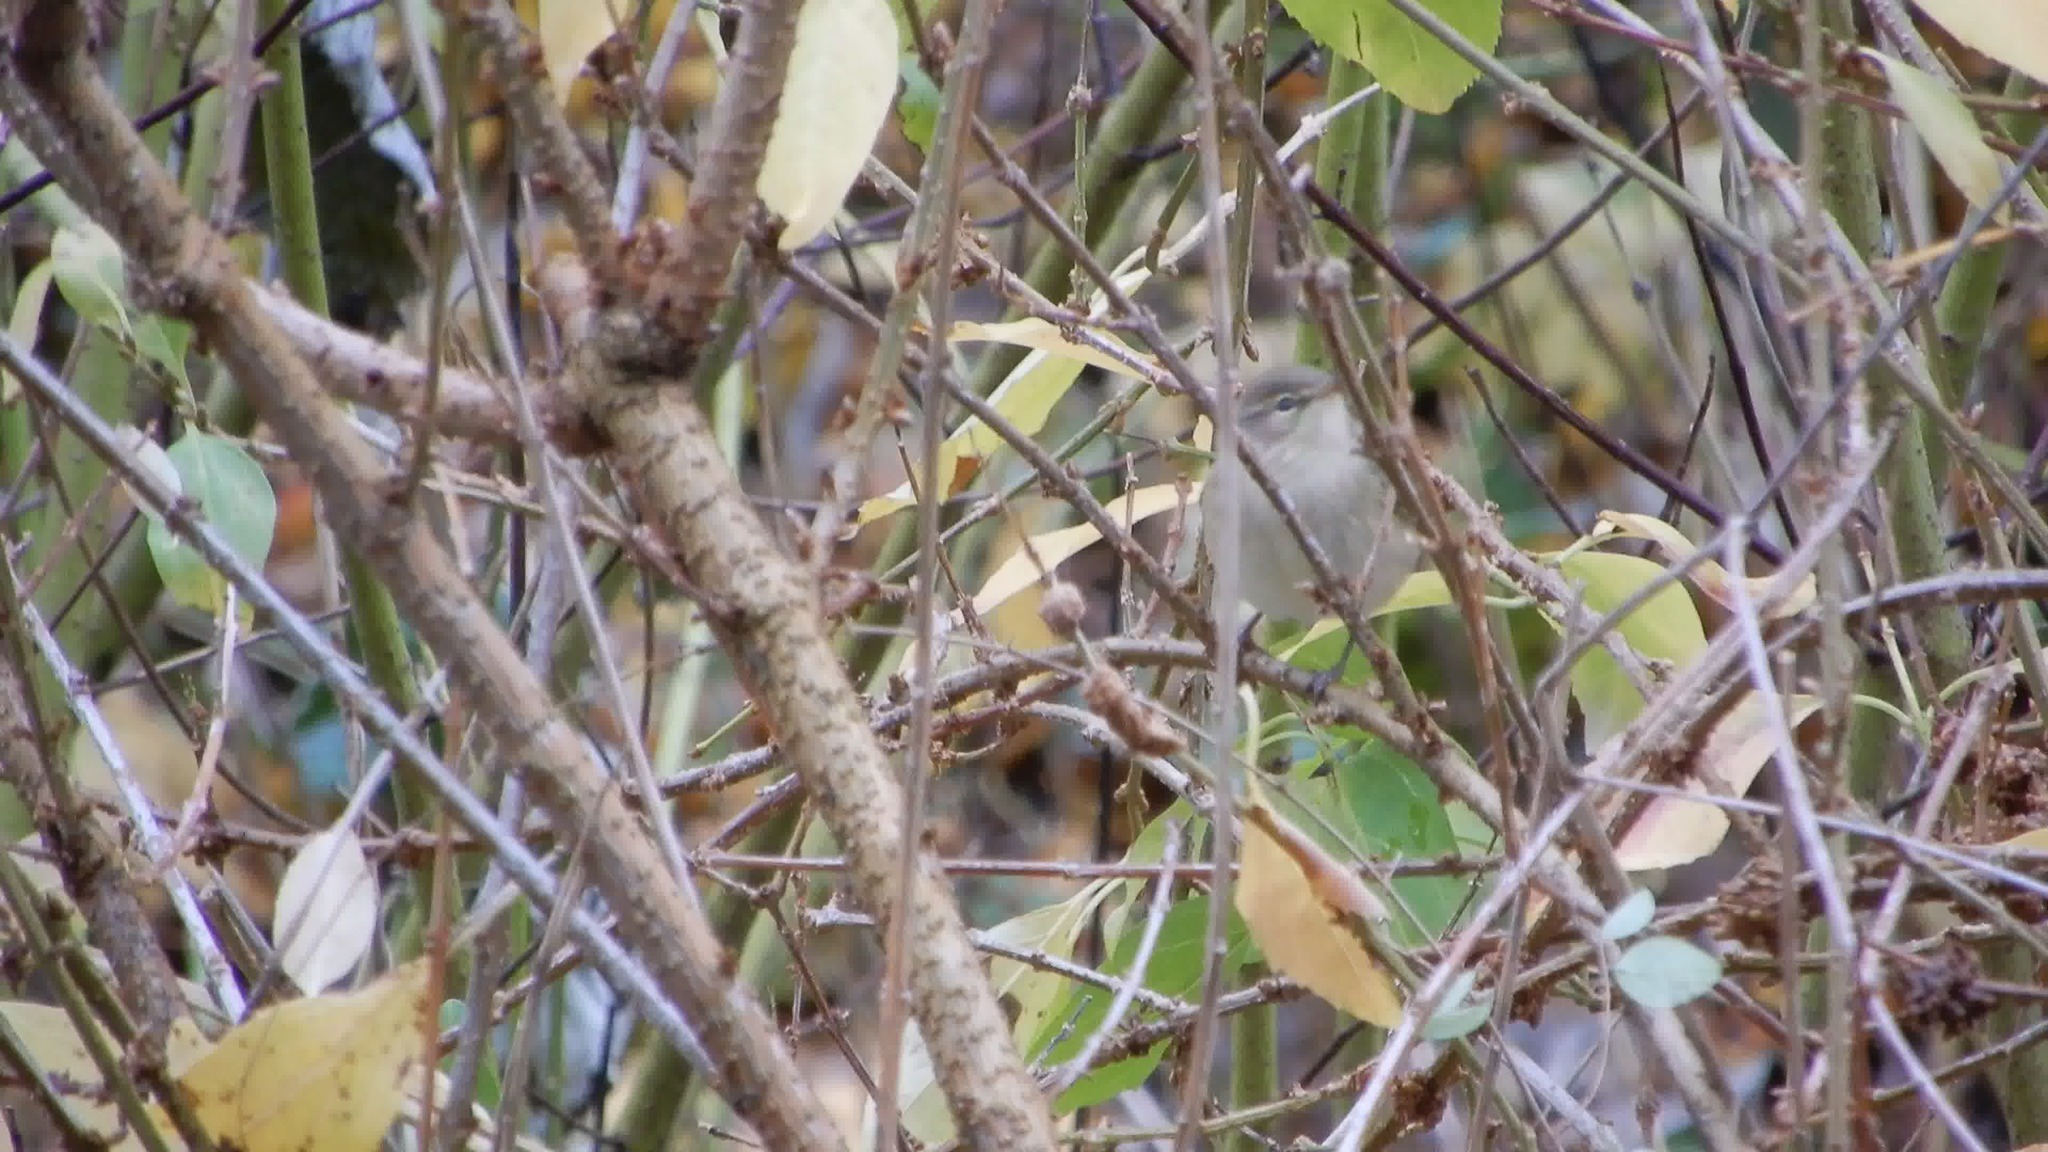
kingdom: Animalia
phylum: Chordata
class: Aves
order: Passeriformes
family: Phylloscopidae
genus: Phylloscopus
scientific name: Phylloscopus collybita
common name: Common chiffchaff
